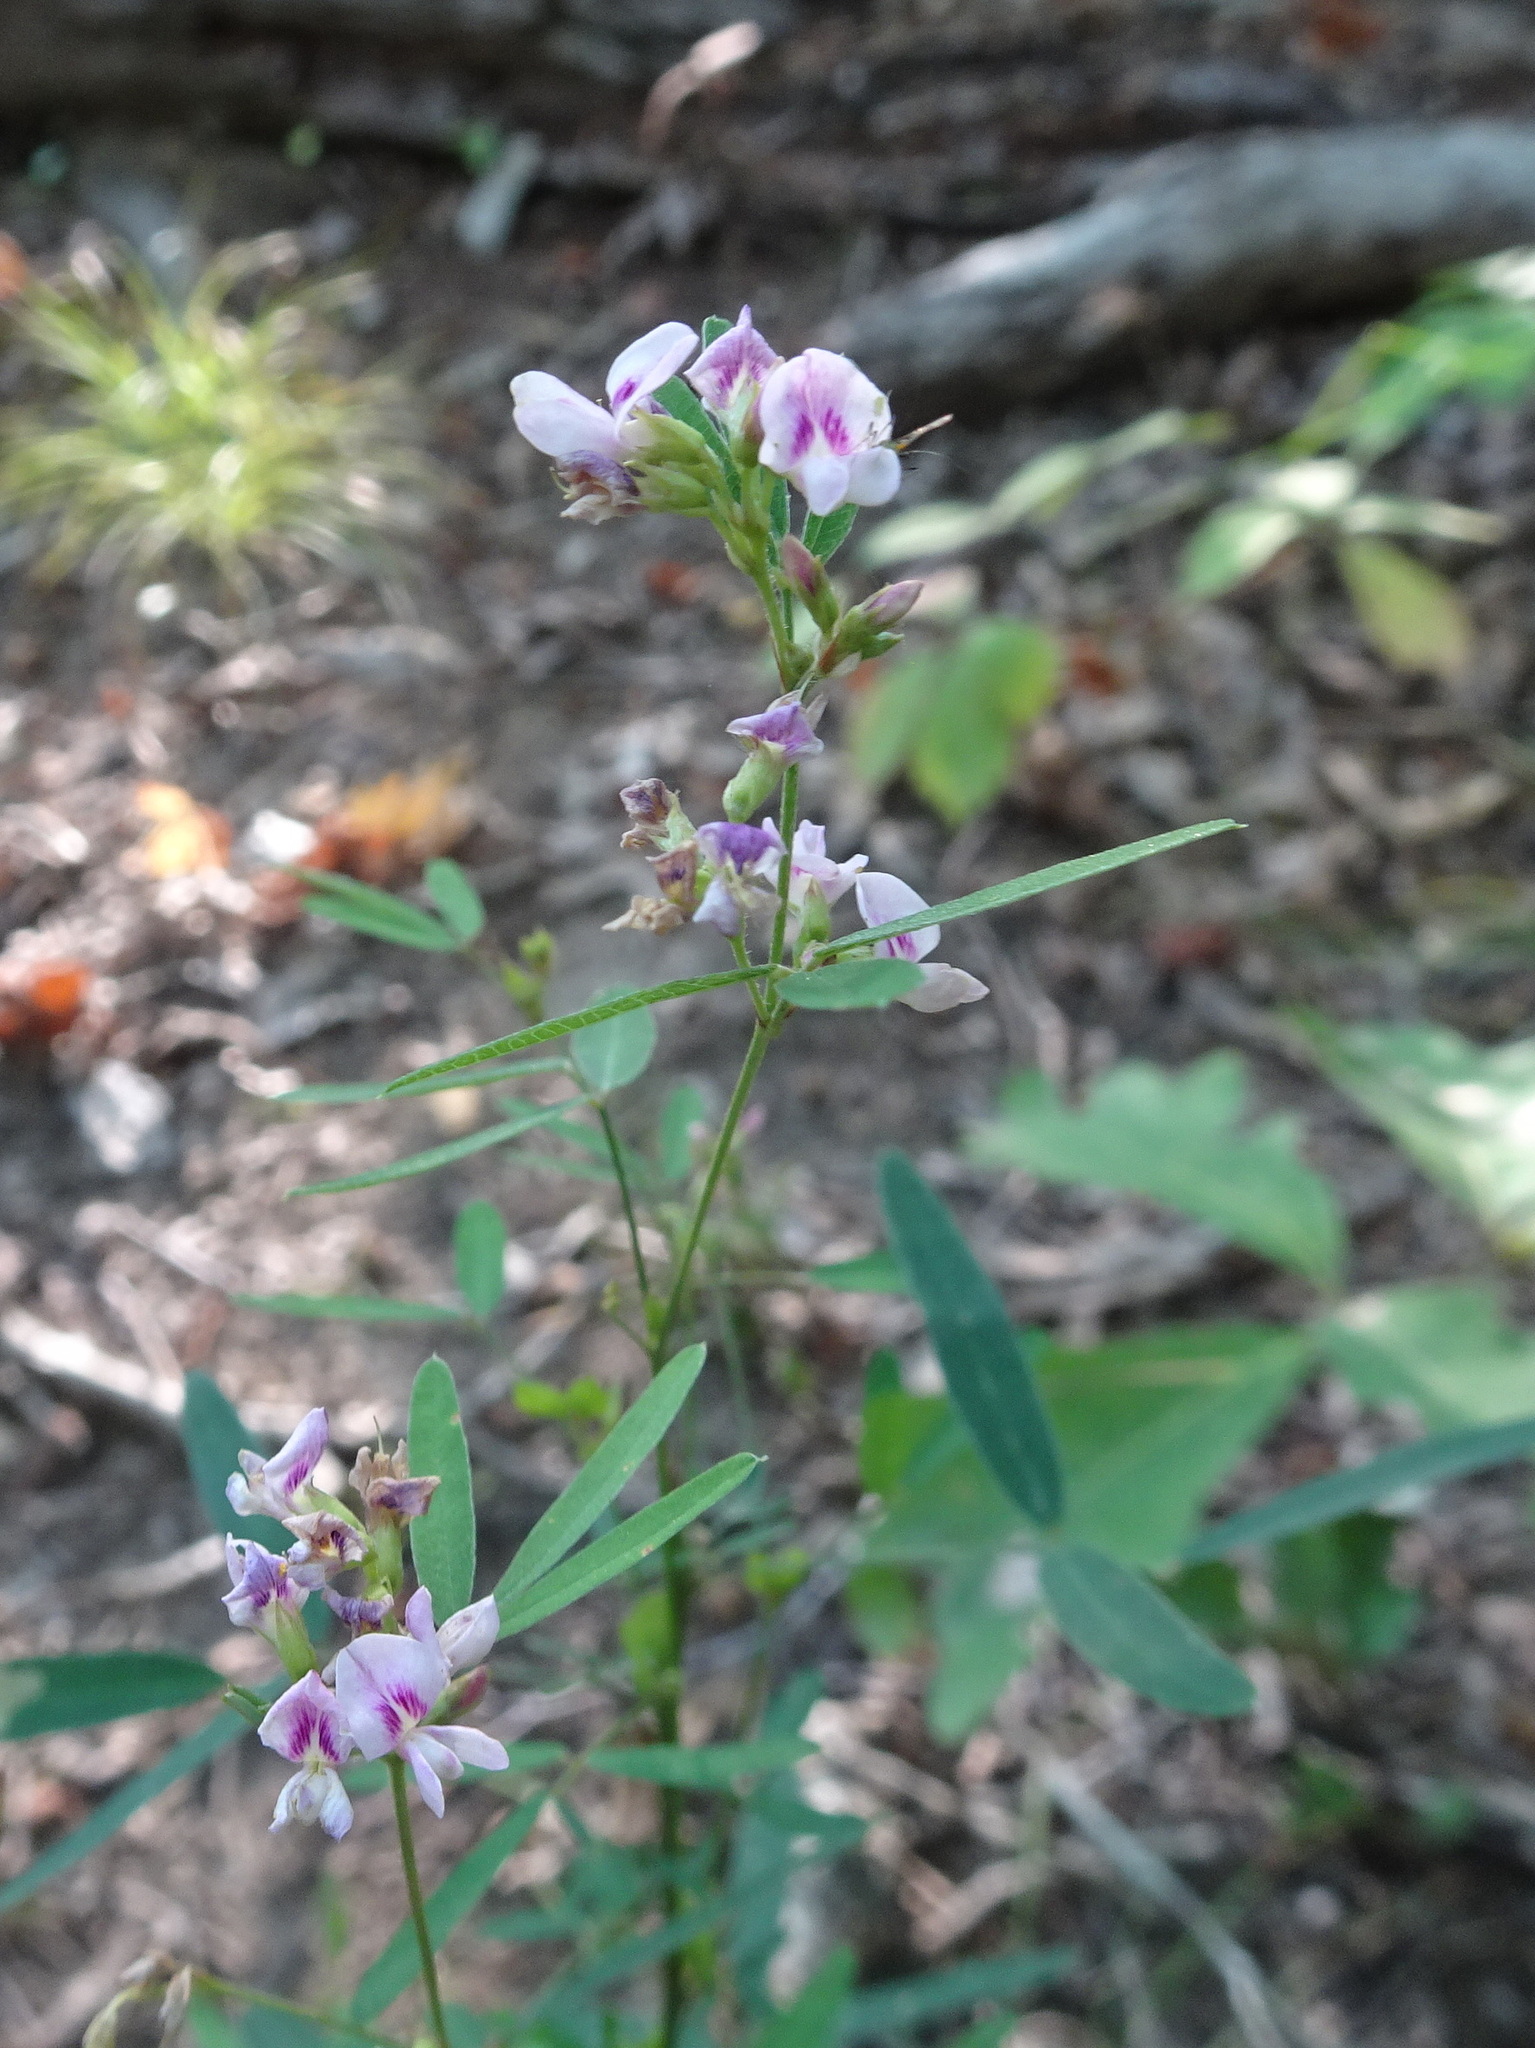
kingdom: Plantae
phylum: Tracheophyta
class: Magnoliopsida
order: Fabales
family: Fabaceae
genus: Lespedeza
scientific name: Lespedeza virginica
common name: Slender bush-clover
